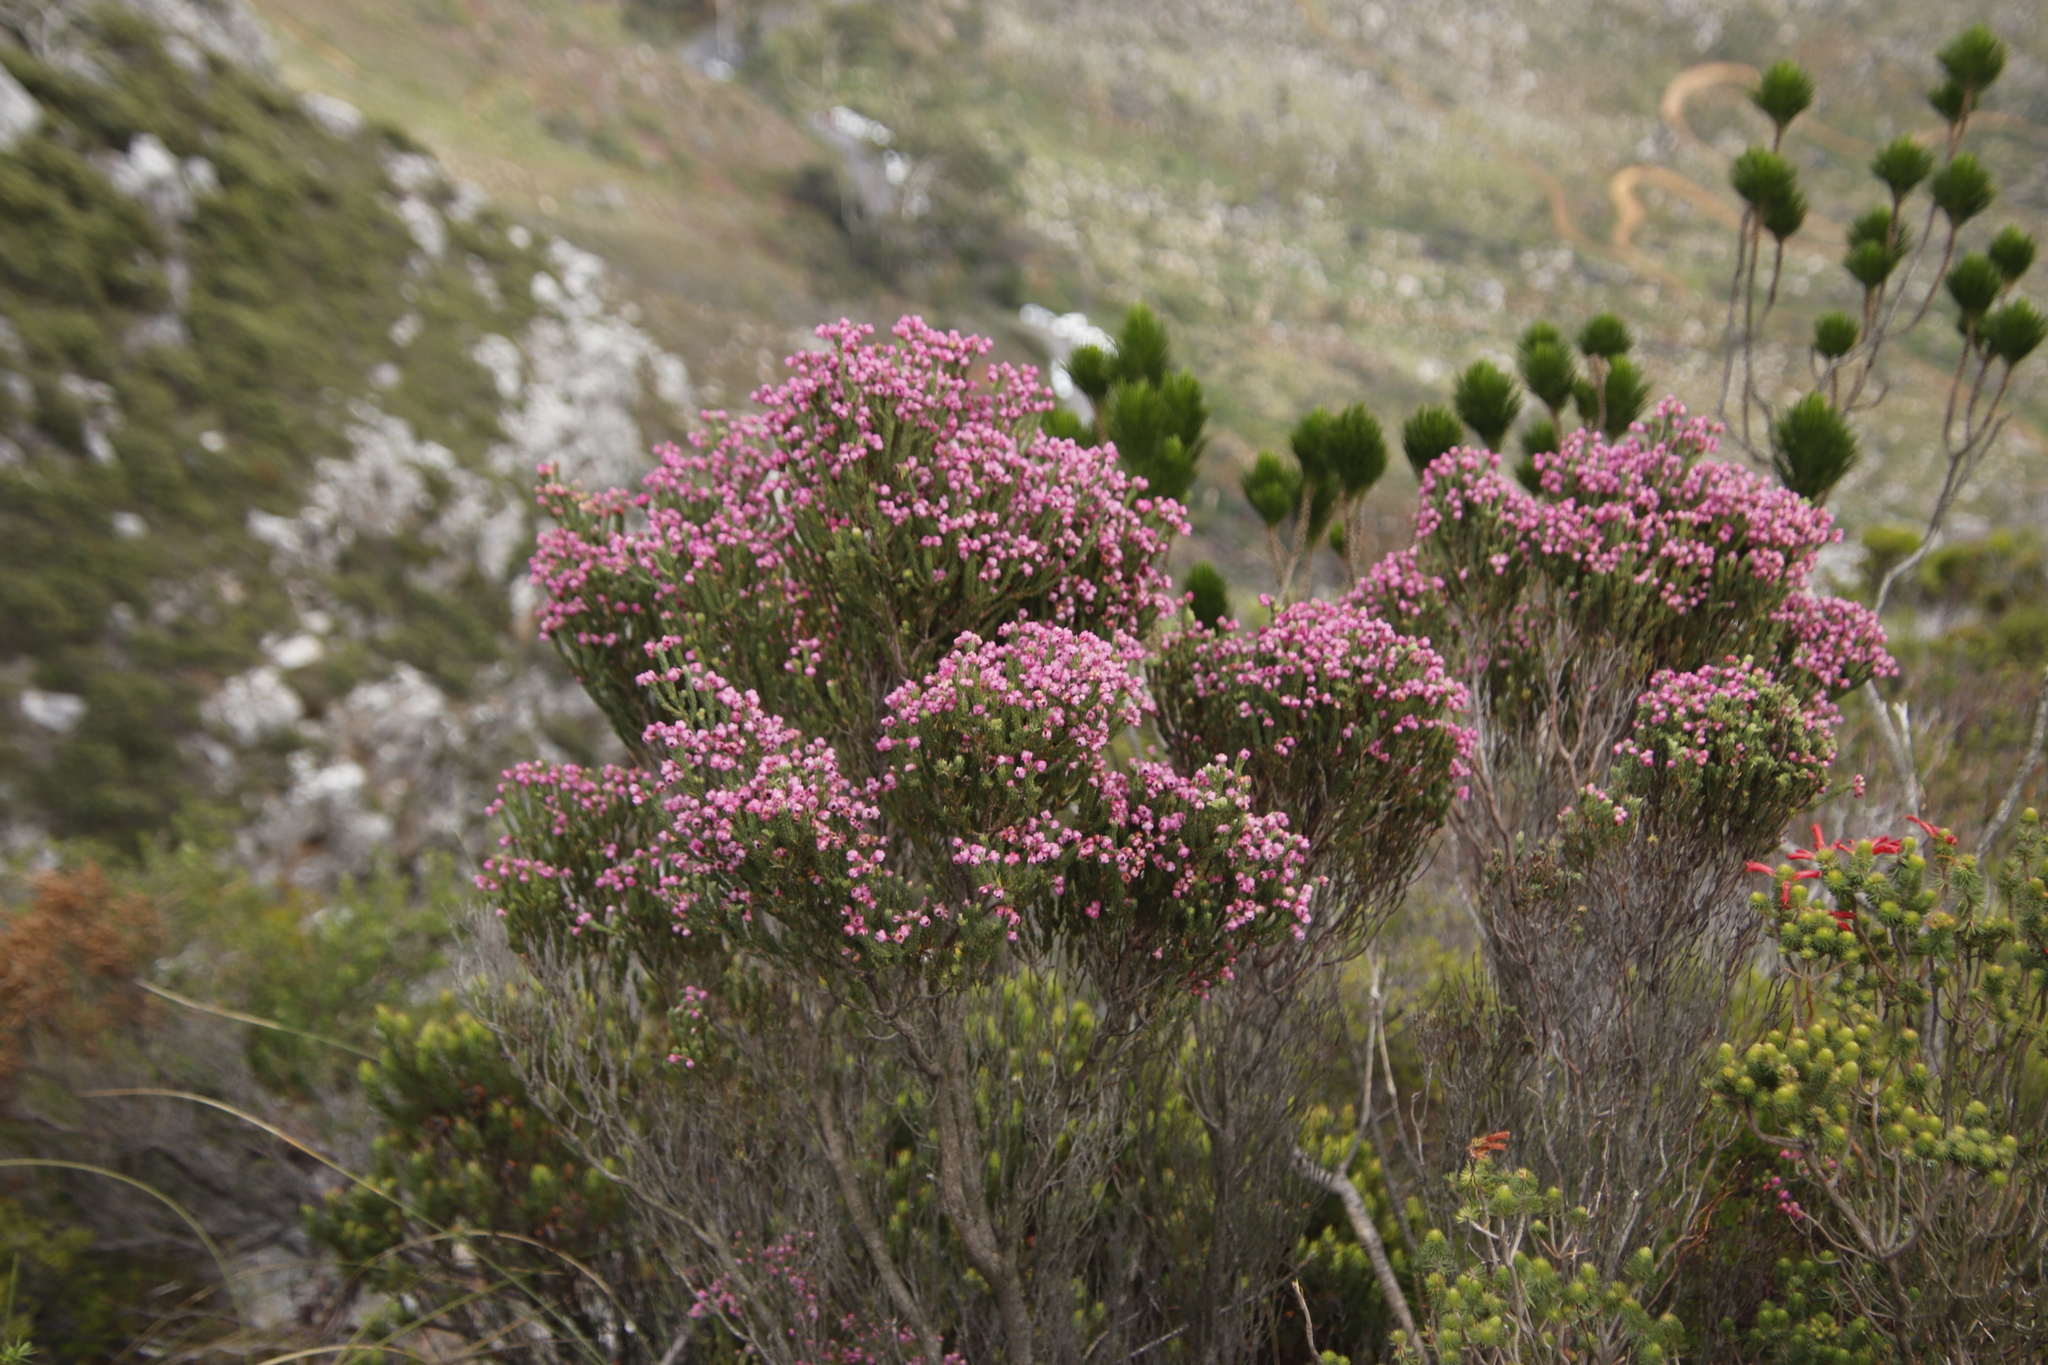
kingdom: Plantae
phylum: Tracheophyta
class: Magnoliopsida
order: Ericales
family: Ericaceae
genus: Erica
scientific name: Erica baccans
